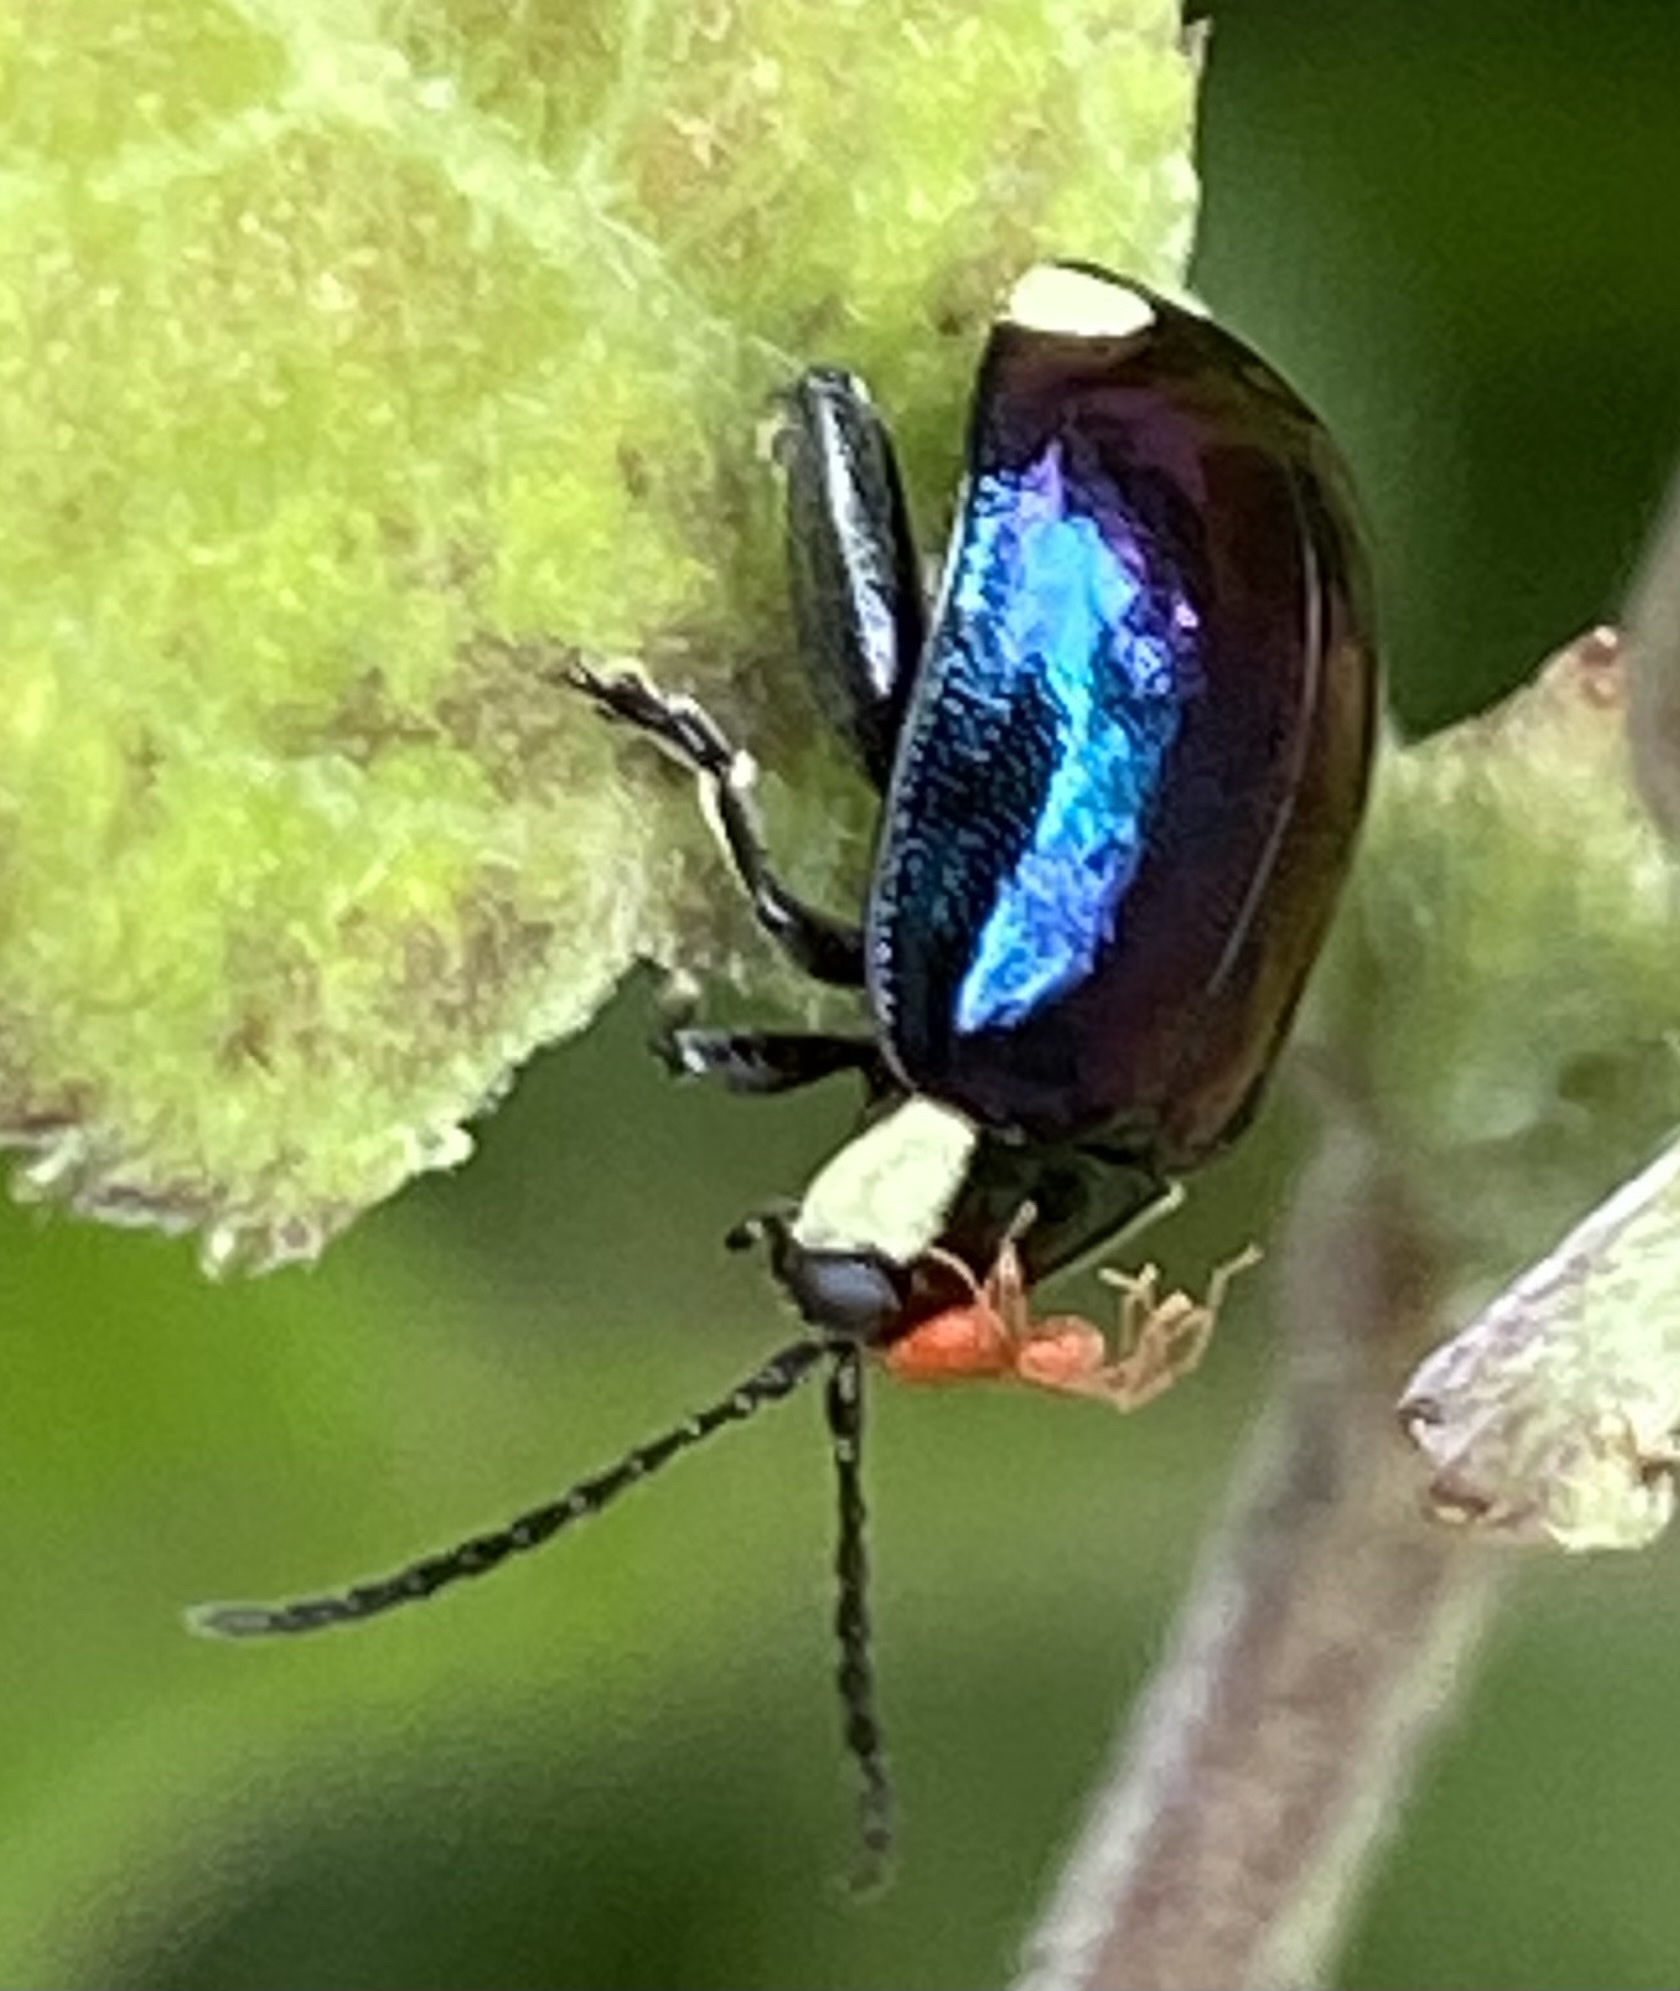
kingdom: Animalia
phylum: Arthropoda
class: Insecta
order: Coleoptera
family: Chrysomelidae
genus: Alagoasa
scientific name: Alagoasa
